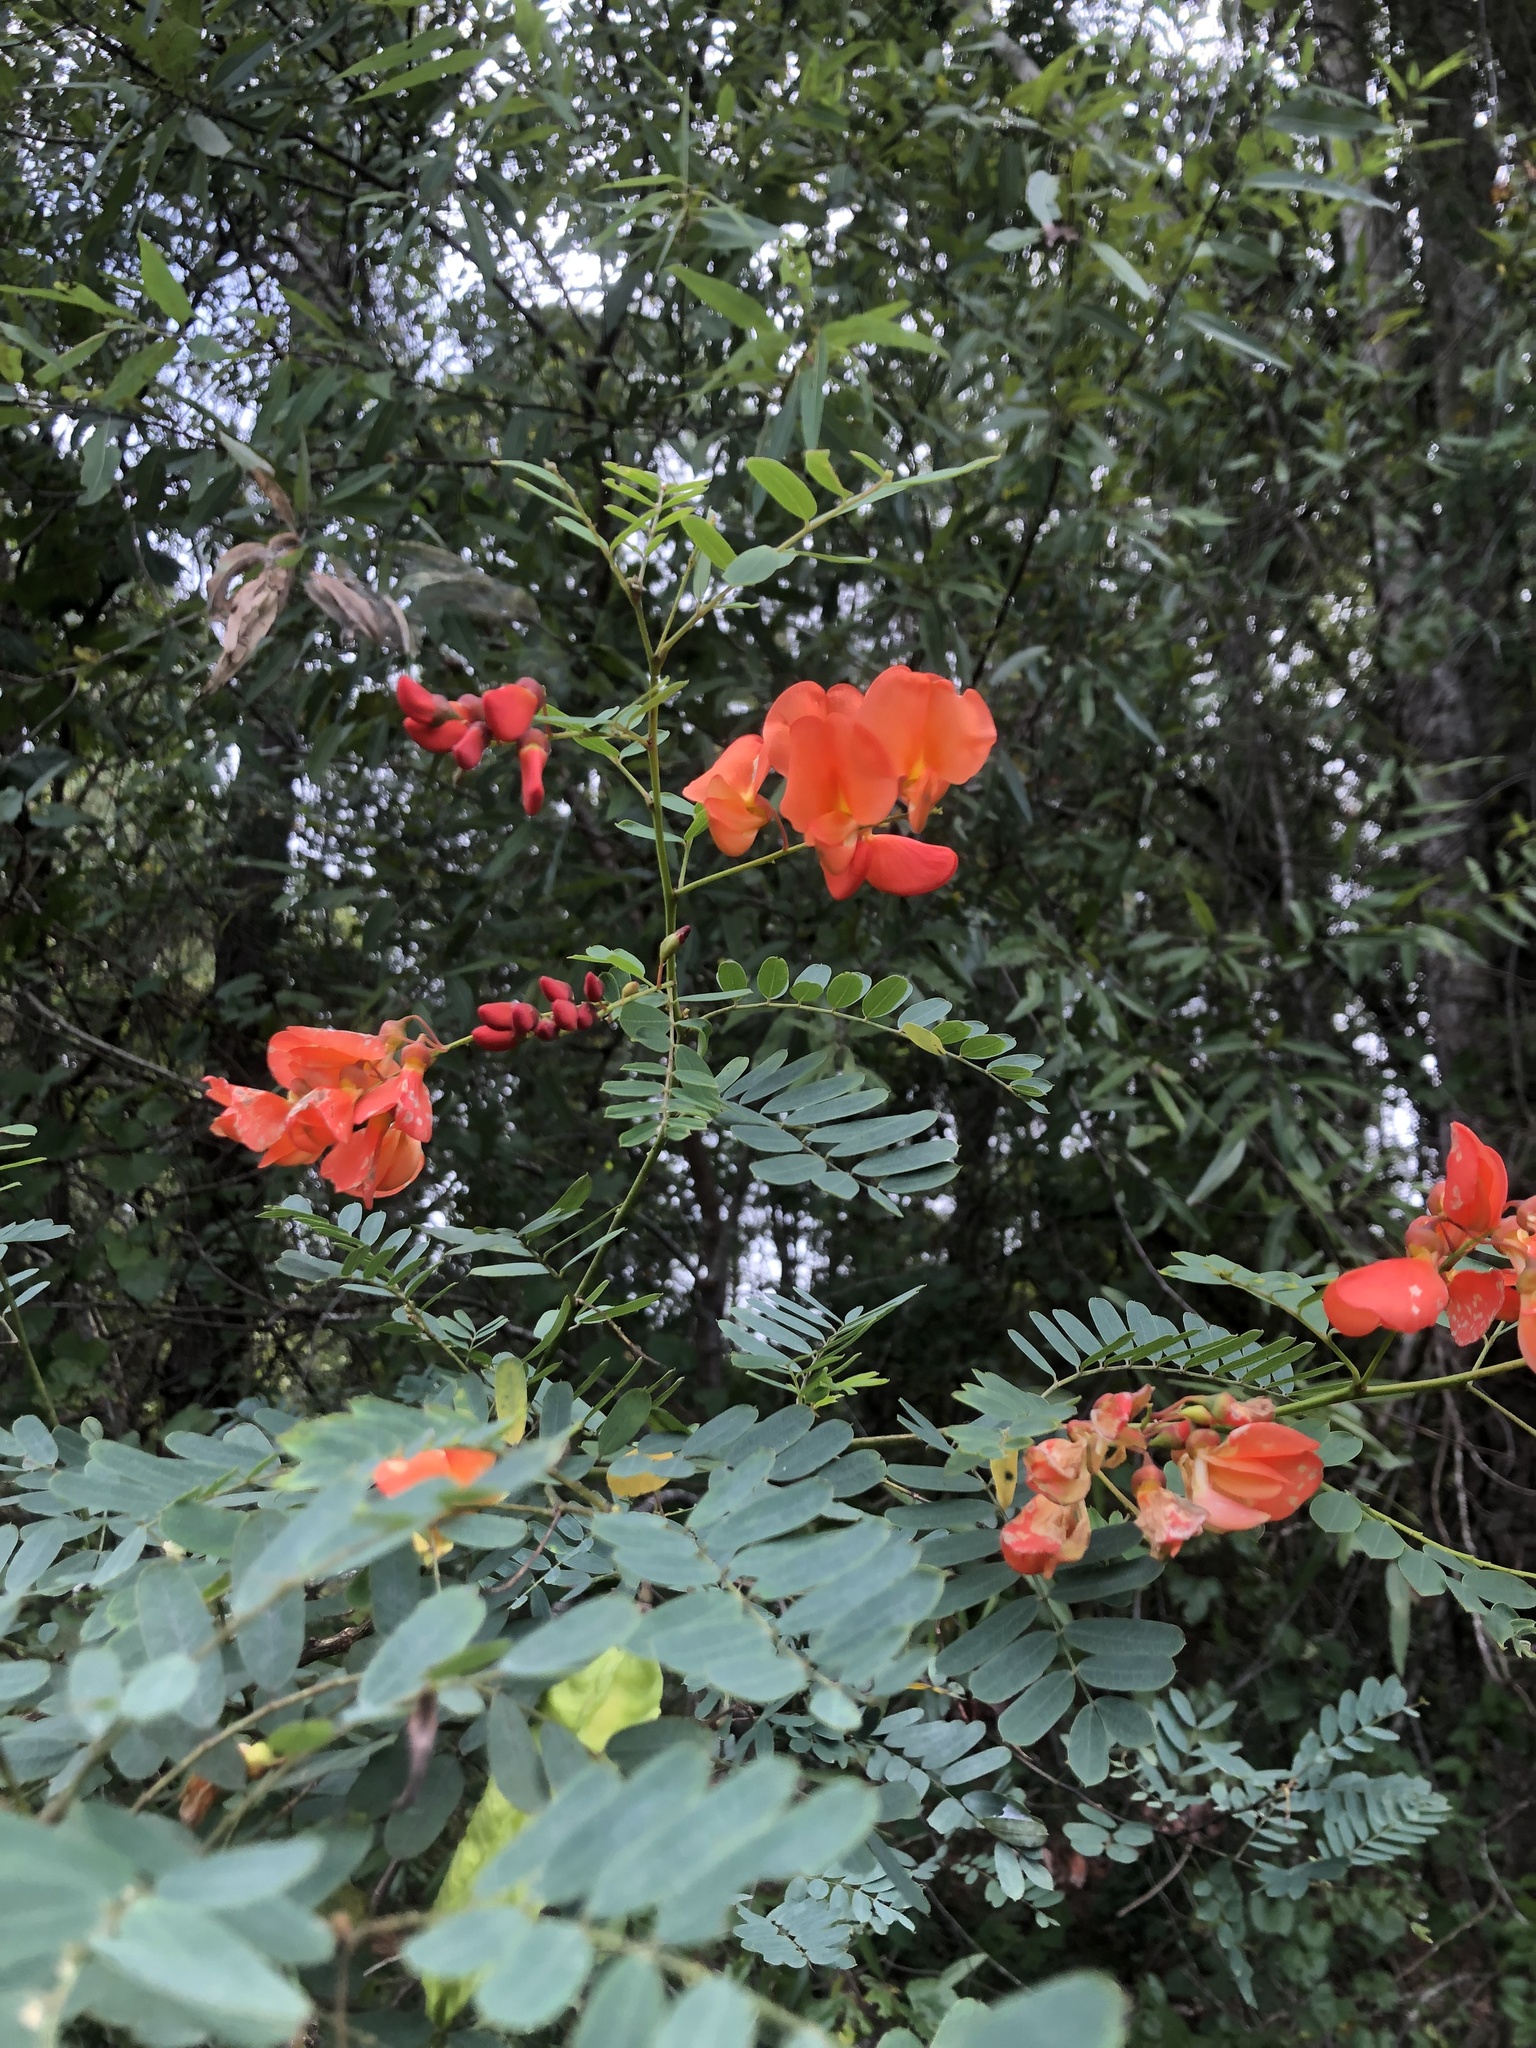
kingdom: Plantae
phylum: Tracheophyta
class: Magnoliopsida
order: Fabales
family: Fabaceae
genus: Sesbania
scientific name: Sesbania punicea
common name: Rattlebox
